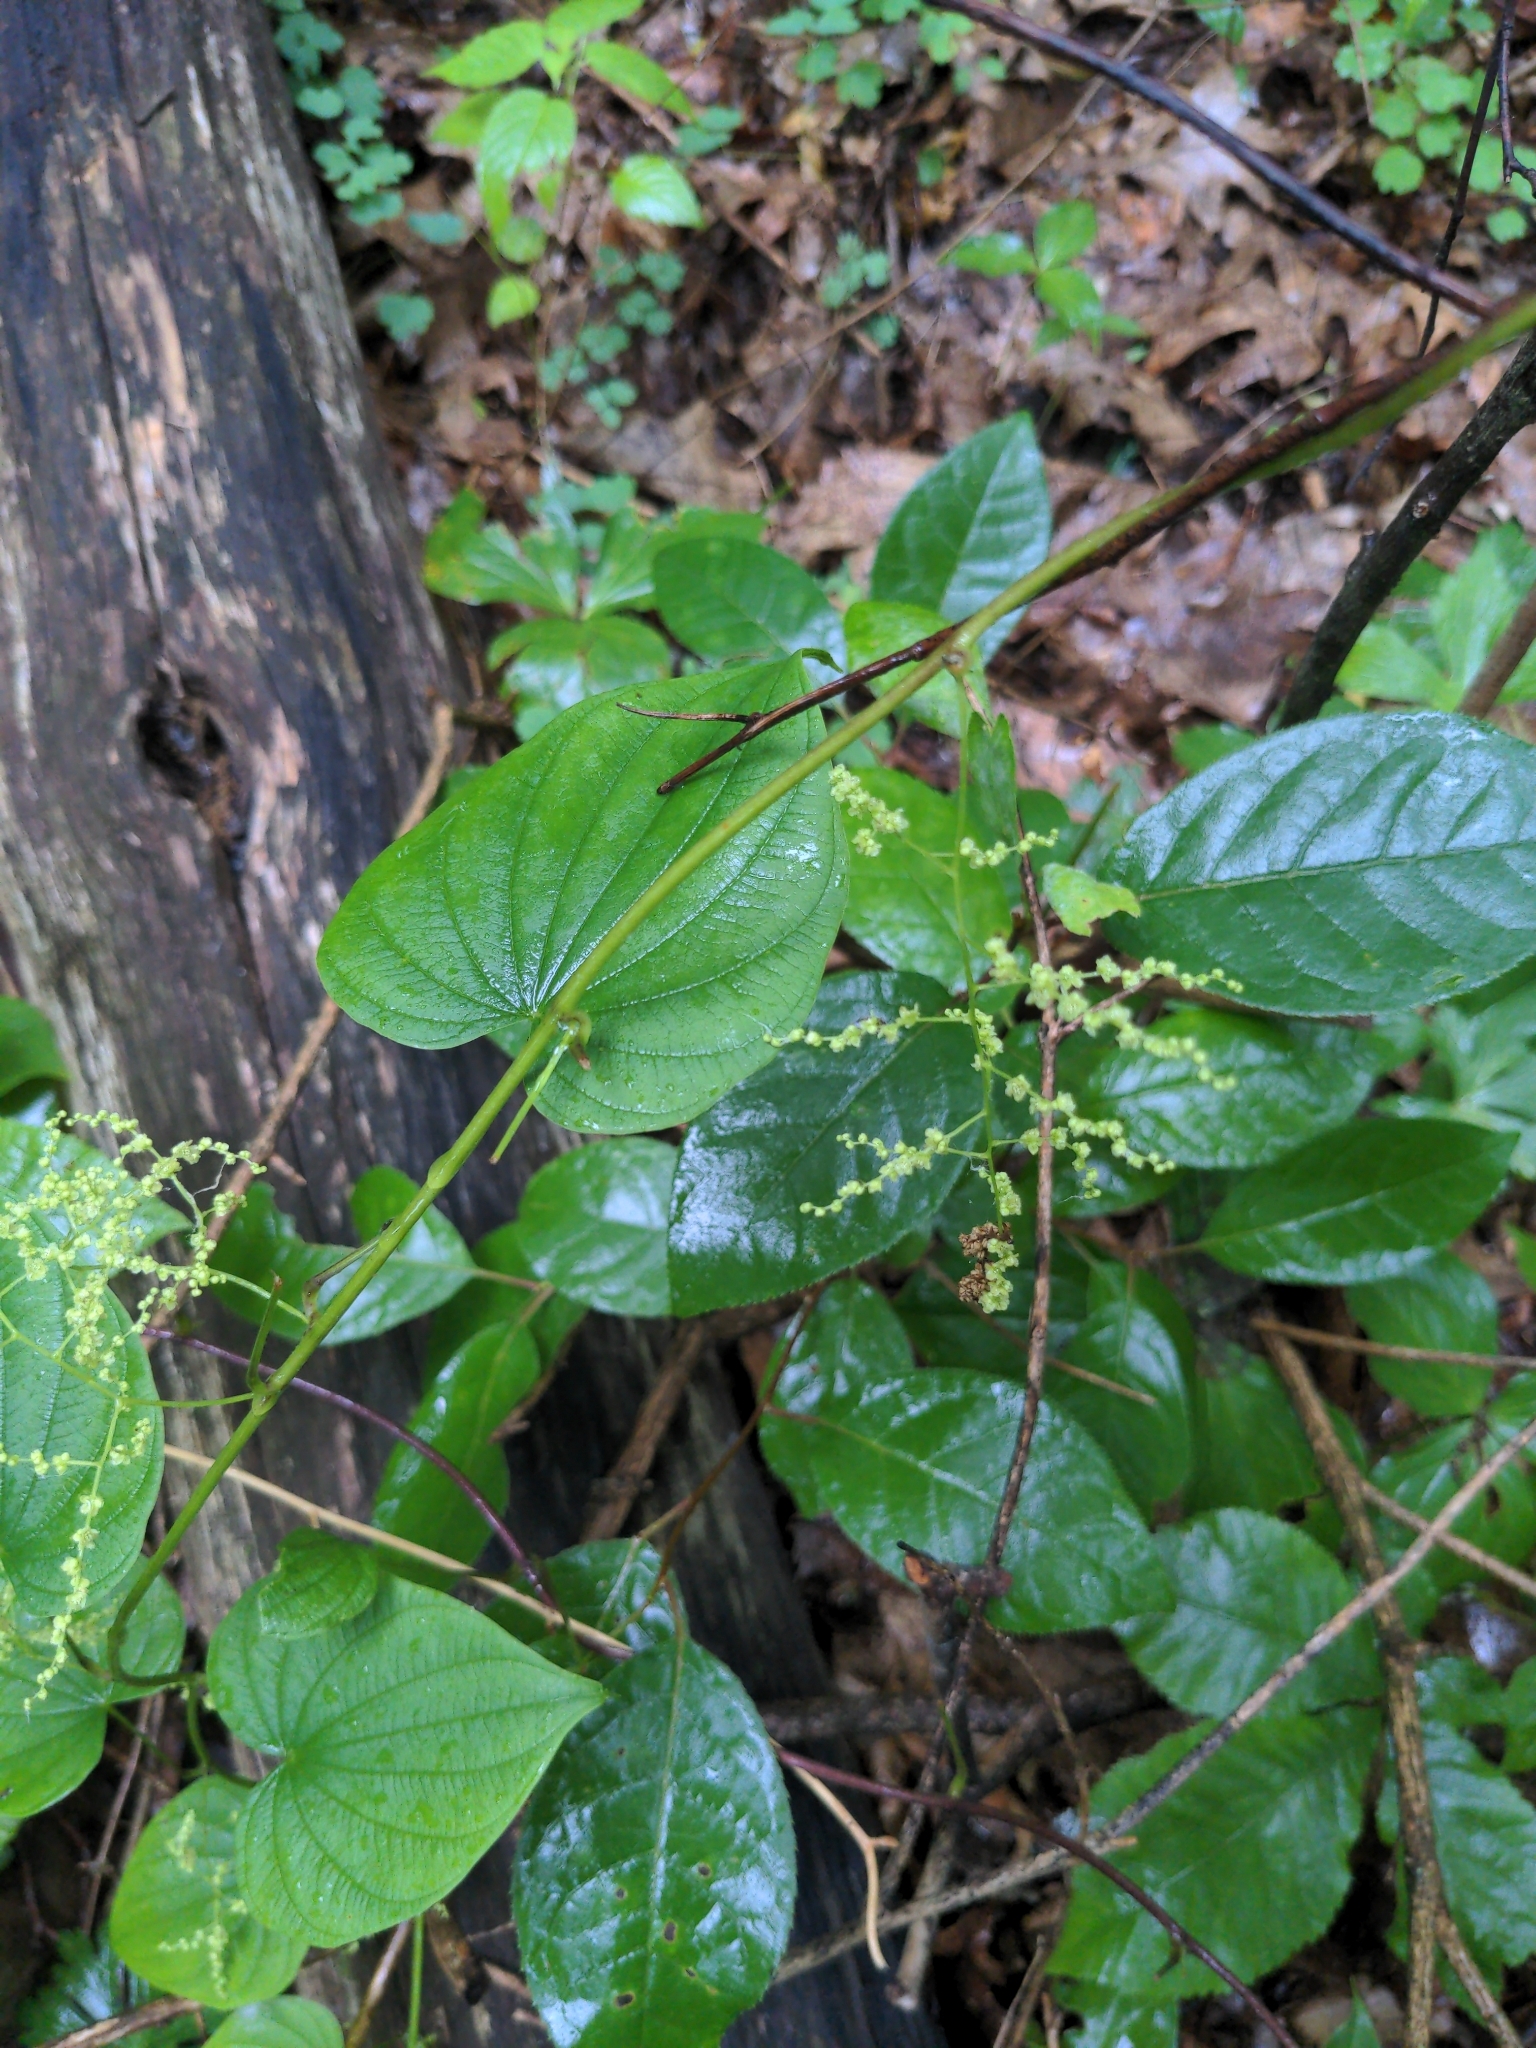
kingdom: Plantae
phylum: Tracheophyta
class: Liliopsida
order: Dioscoreales
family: Dioscoreaceae
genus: Dioscorea
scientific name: Dioscorea villosa
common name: Wild yam
